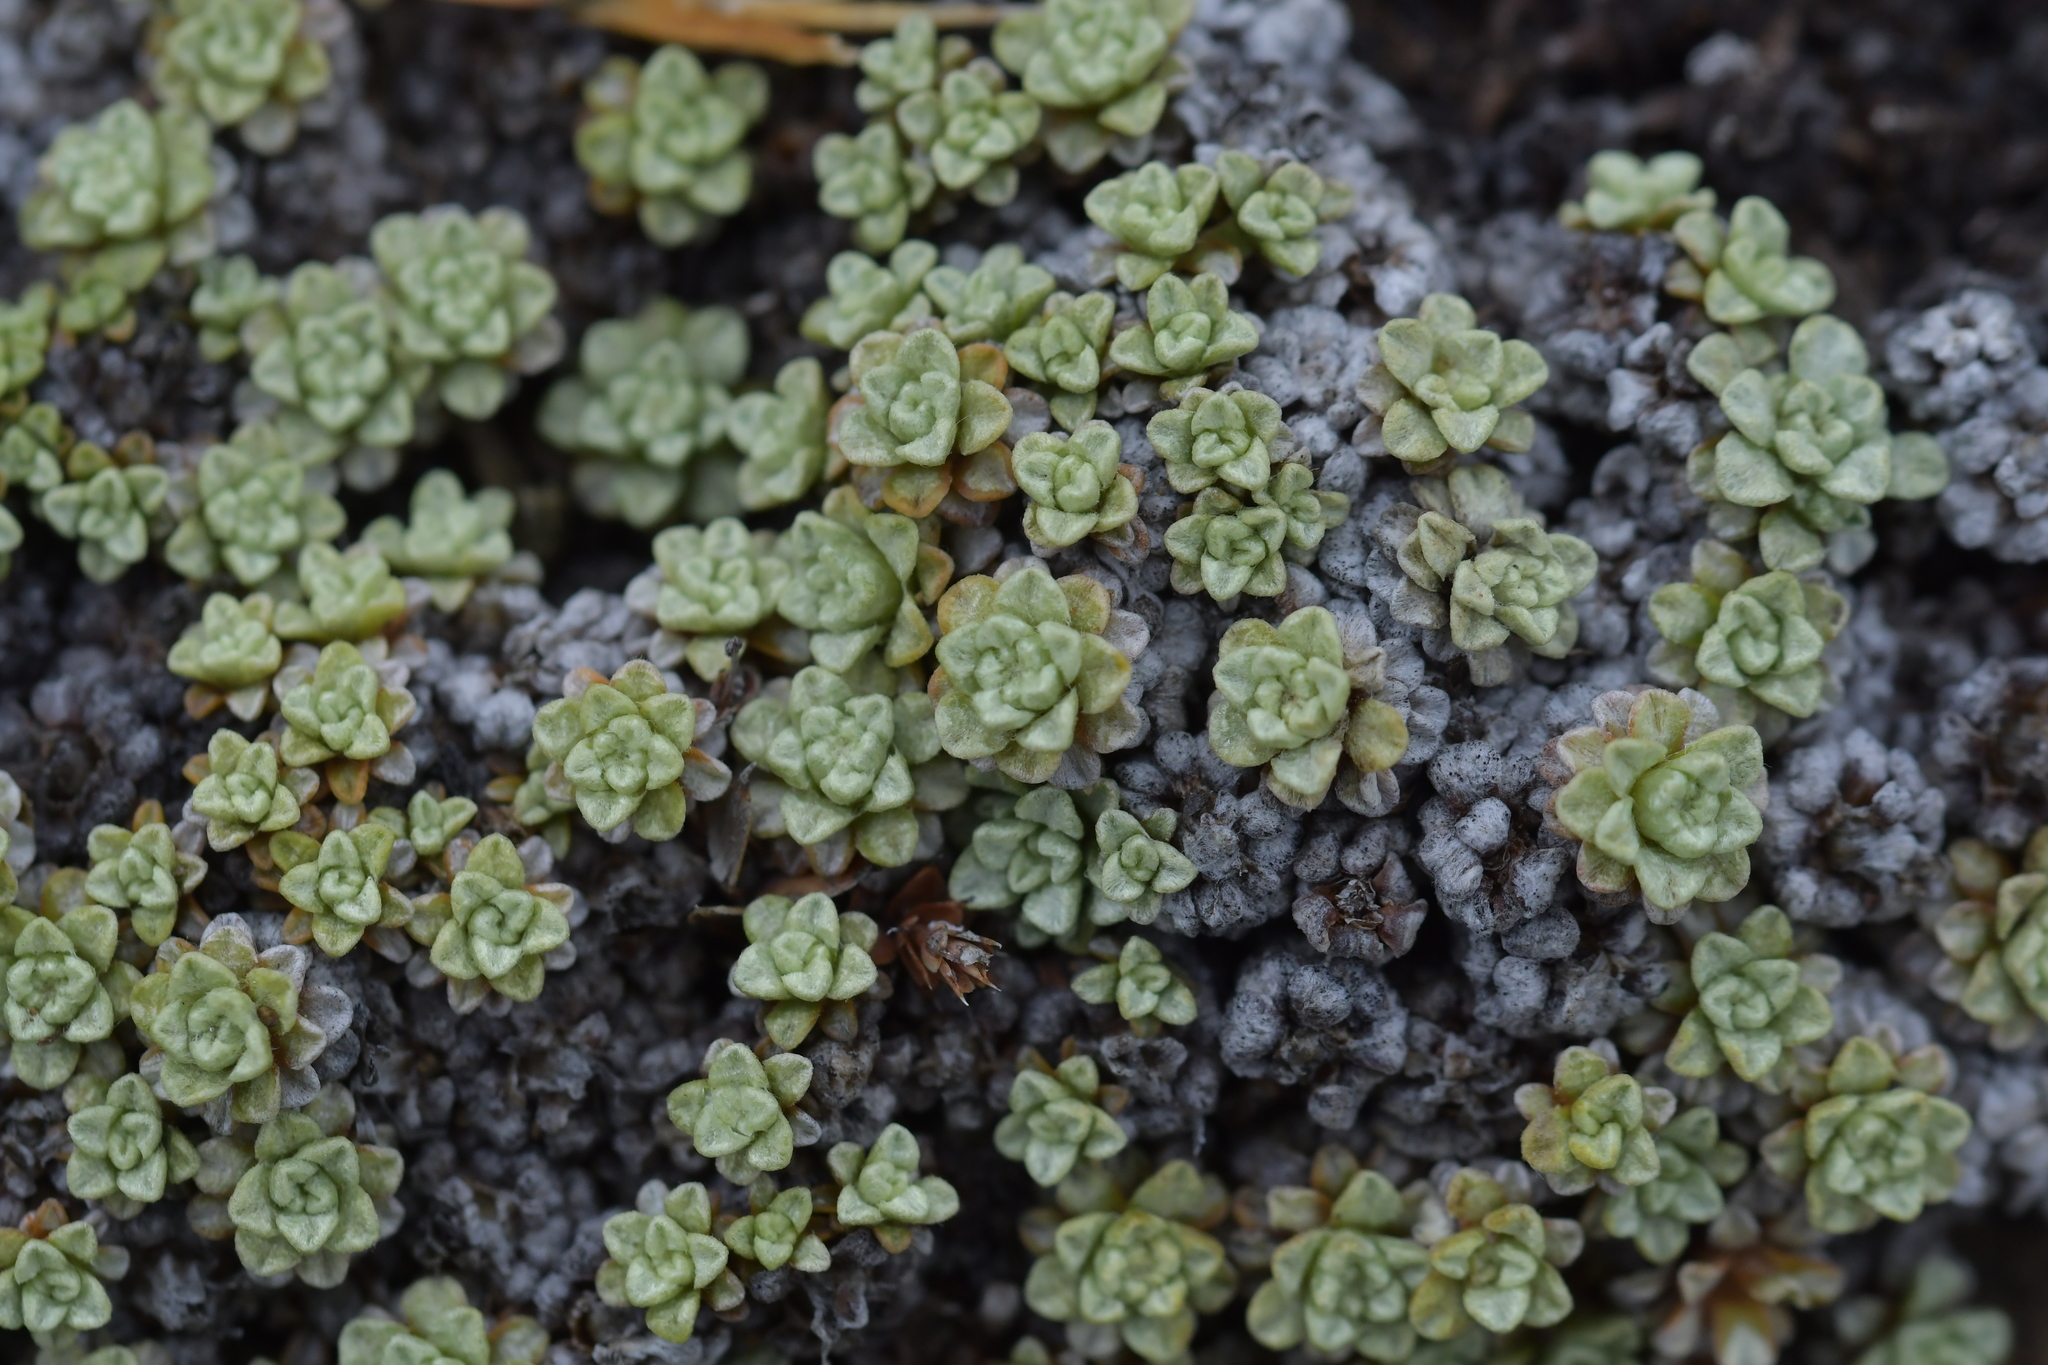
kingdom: Plantae
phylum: Tracheophyta
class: Magnoliopsida
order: Asterales
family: Asteraceae
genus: Raoulia
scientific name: Raoulia parkii
